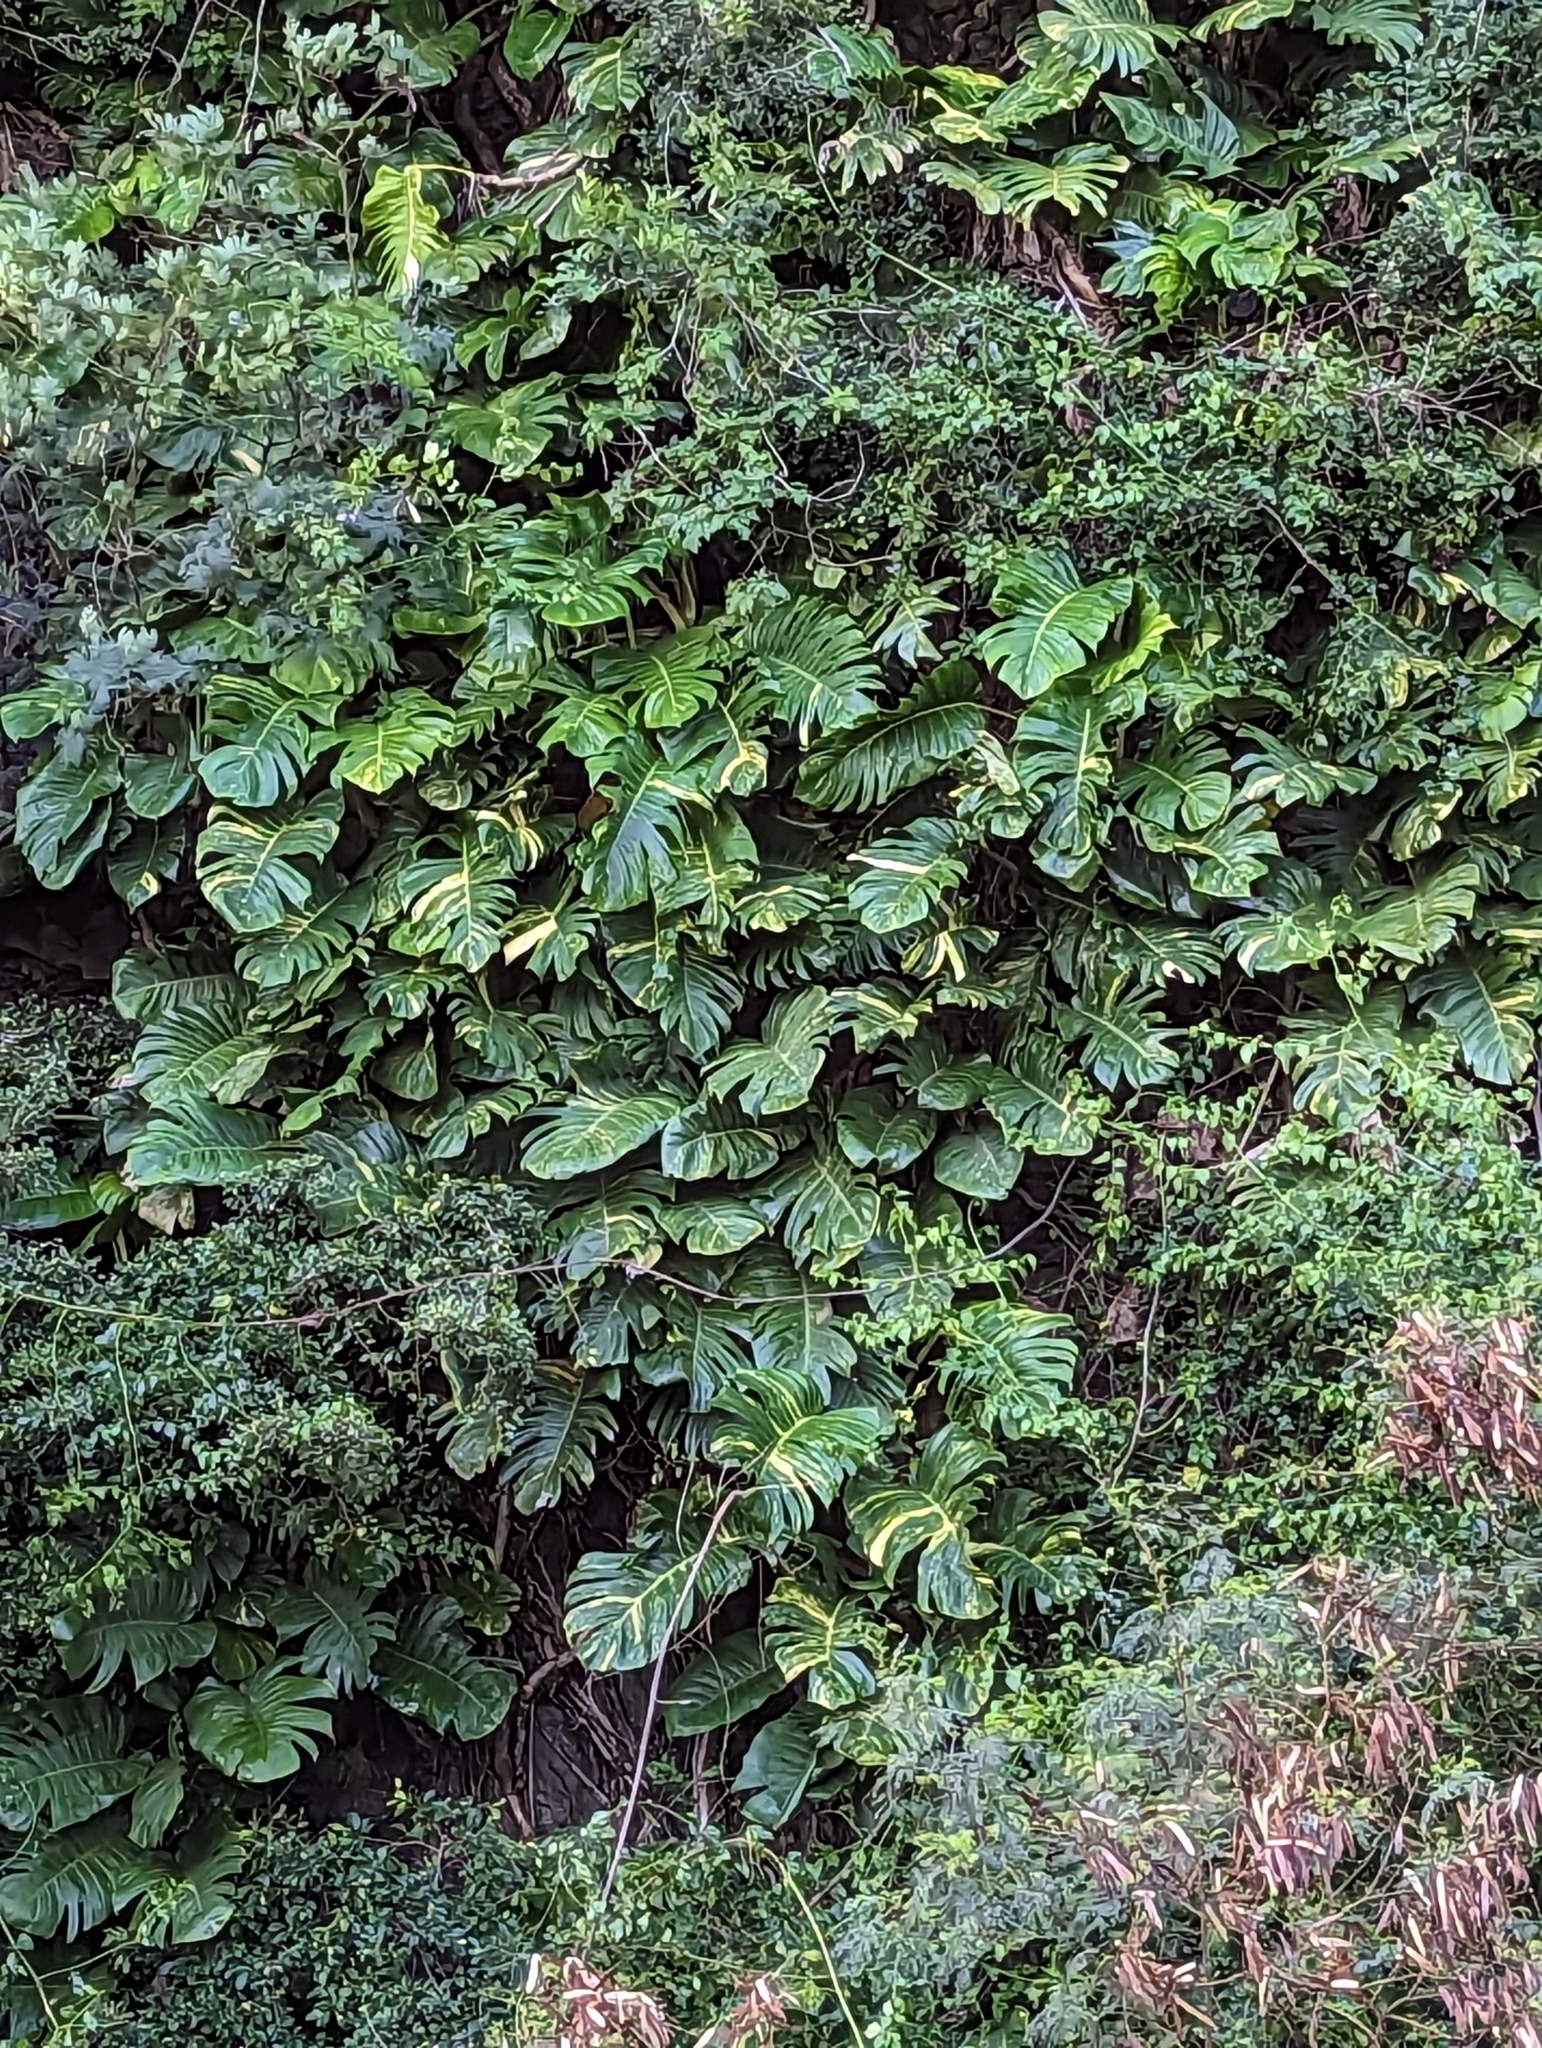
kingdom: Plantae
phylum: Tracheophyta
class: Liliopsida
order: Alismatales
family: Araceae
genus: Epipremnum
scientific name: Epipremnum aureum
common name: Golden hunter's-robe
